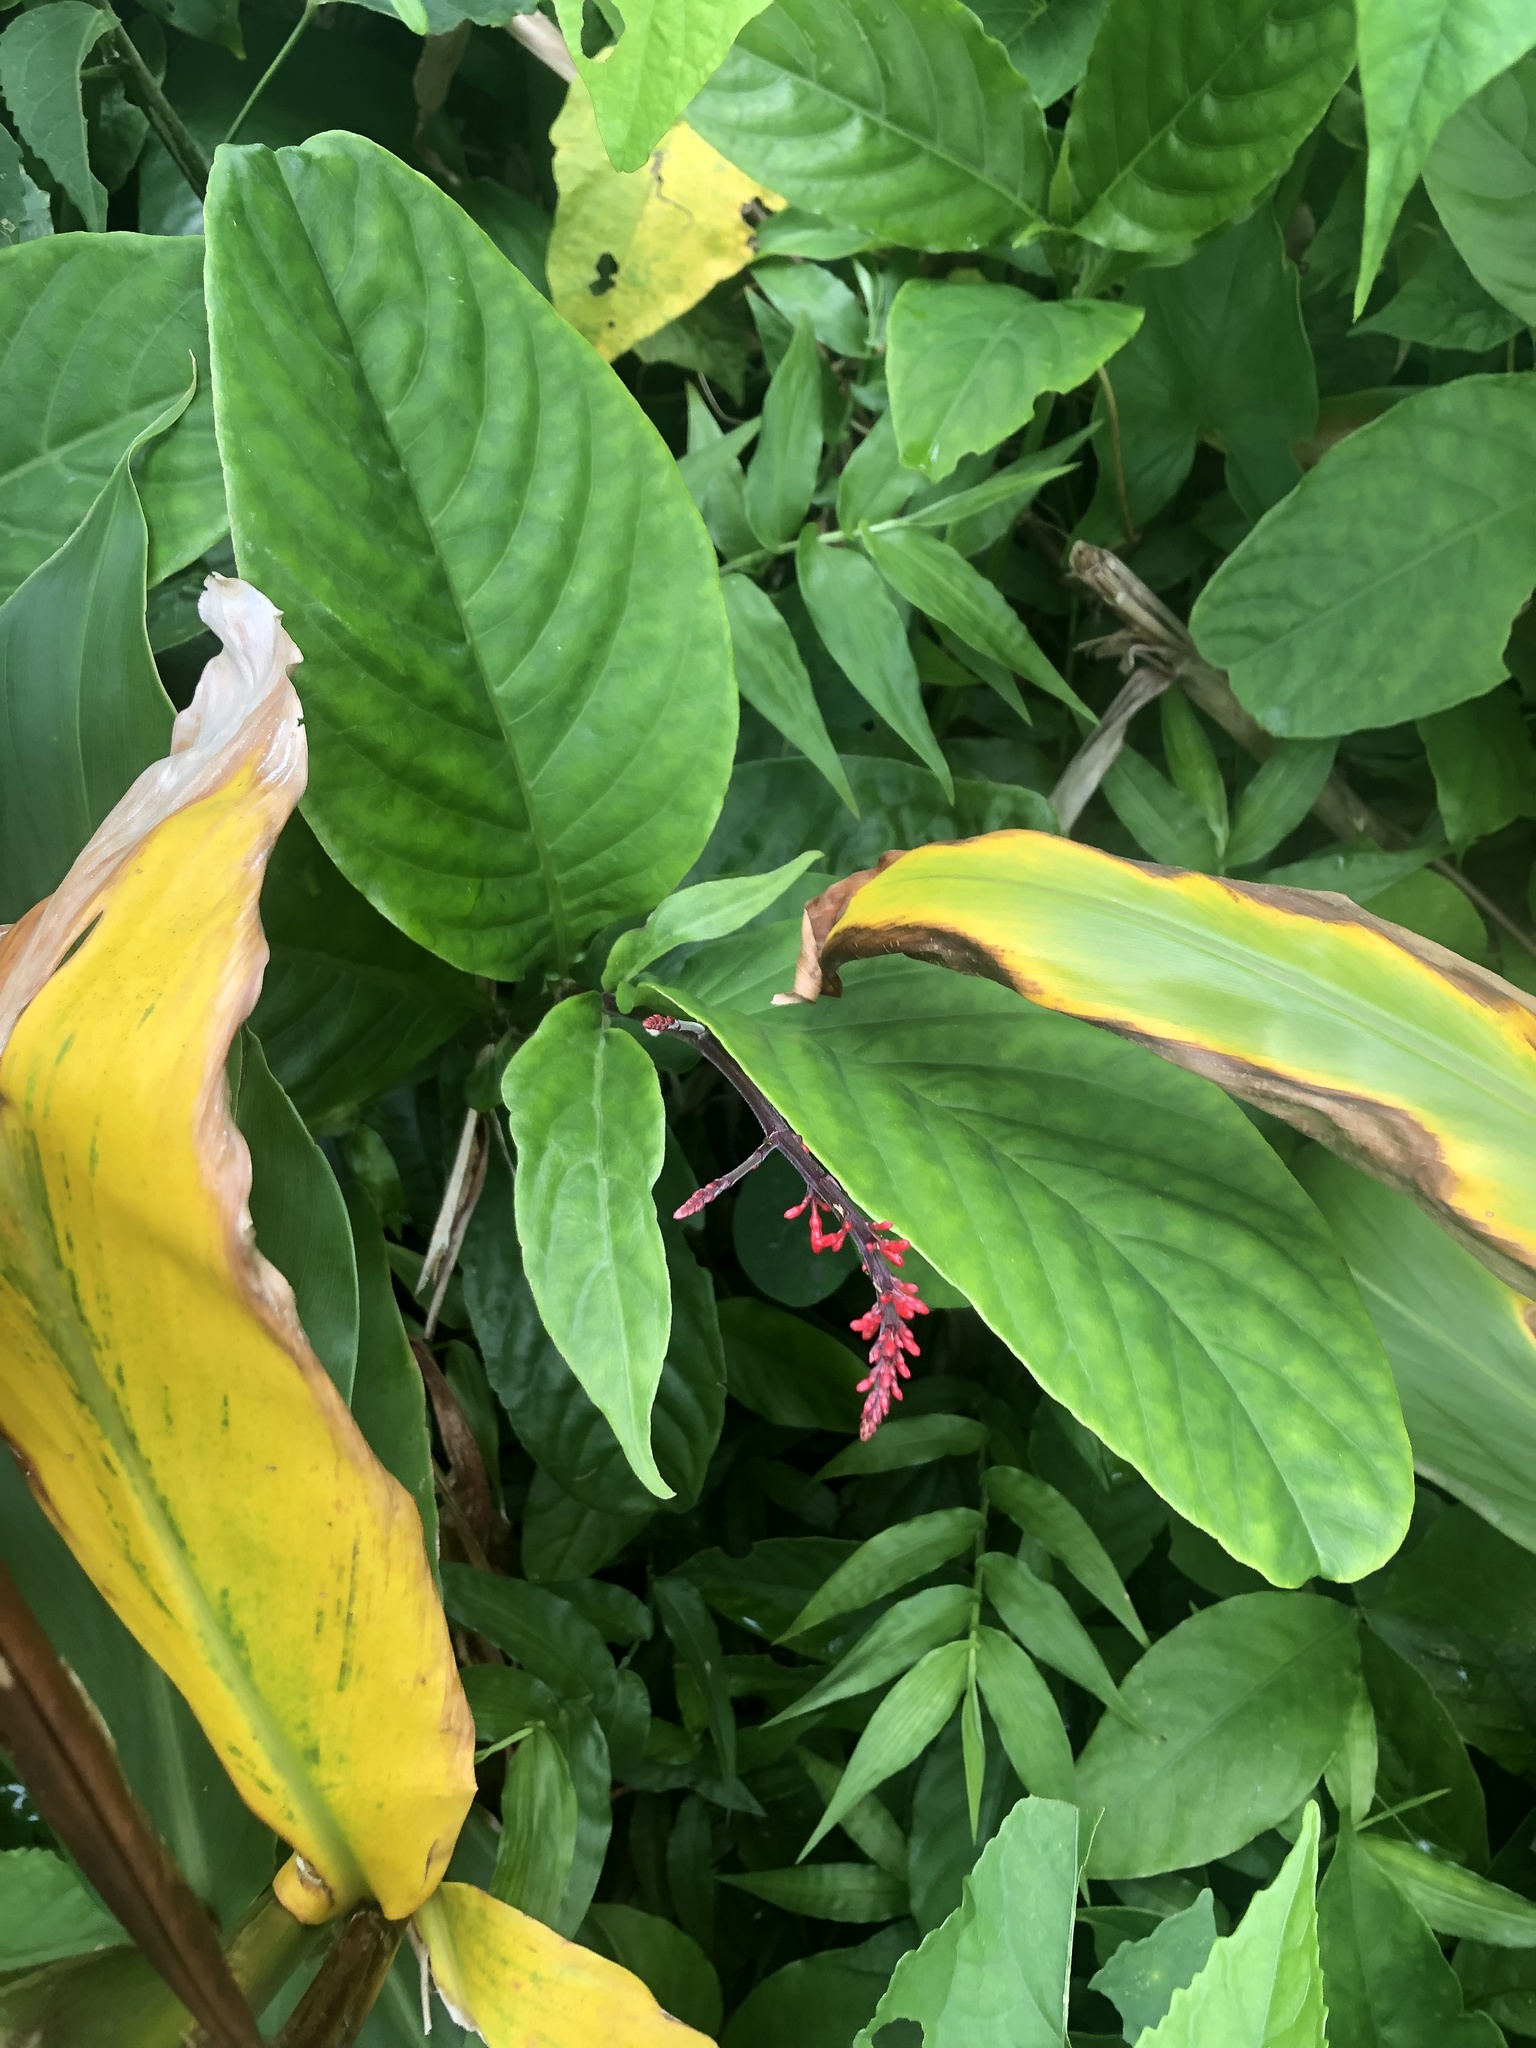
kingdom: Plantae
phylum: Tracheophyta
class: Magnoliopsida
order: Lamiales
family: Acanthaceae
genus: Odontonema
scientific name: Odontonema cuspidatum
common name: Mottled toothedthread
